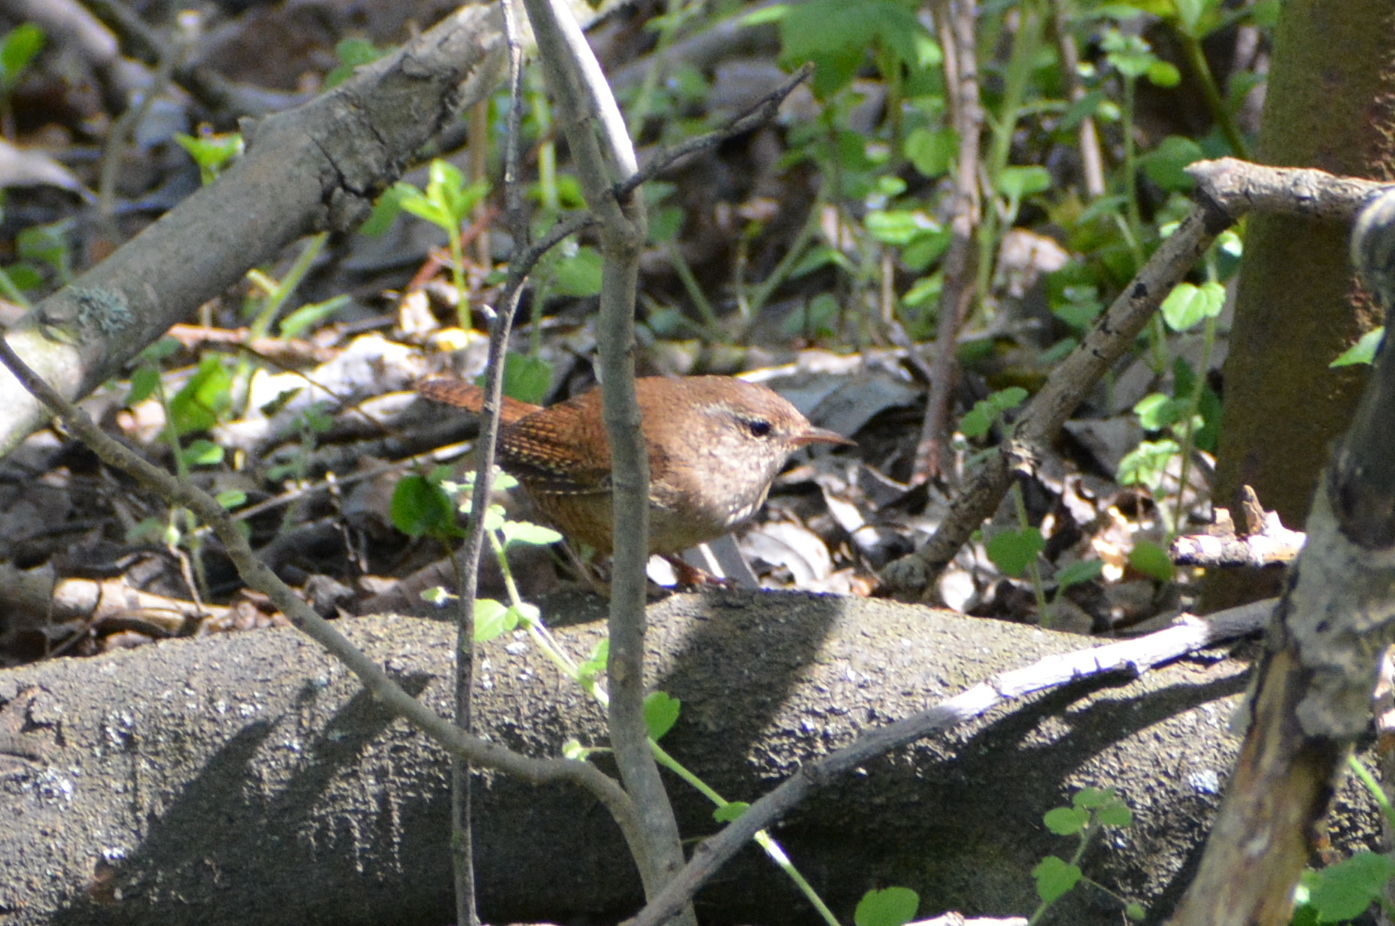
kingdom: Animalia
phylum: Chordata
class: Aves
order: Passeriformes
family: Troglodytidae
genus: Troglodytes
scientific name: Troglodytes troglodytes
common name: Eurasian wren
